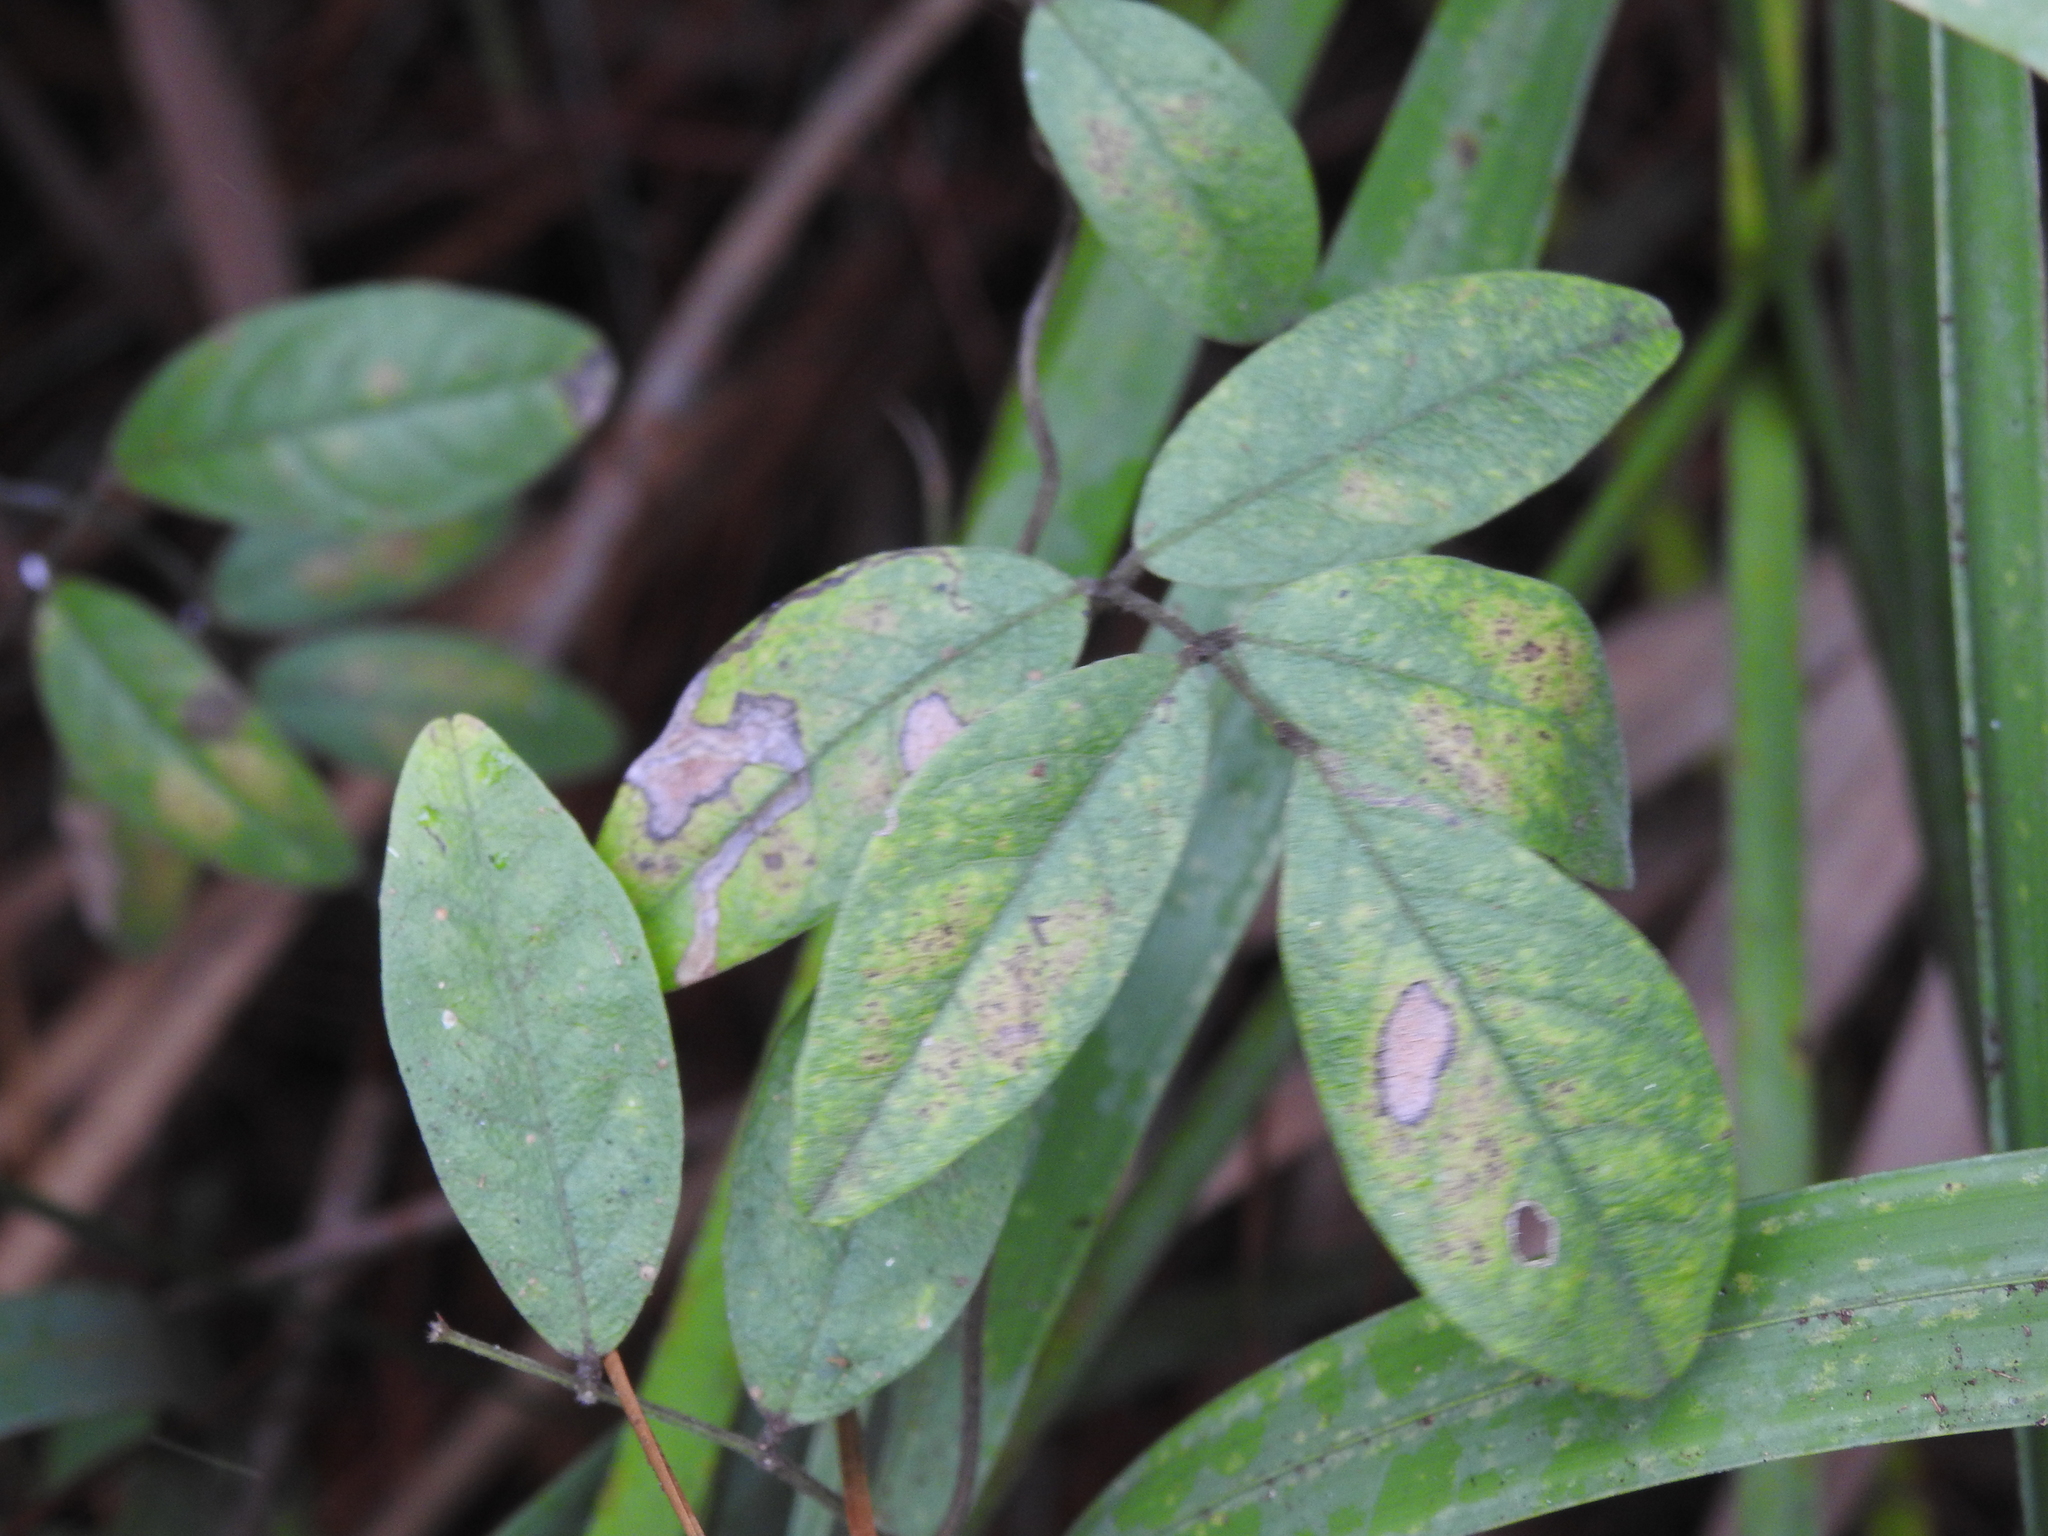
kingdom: Plantae
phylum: Tracheophyta
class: Magnoliopsida
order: Fabales
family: Fabaceae
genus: Galactia
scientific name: Galactia elliottii
